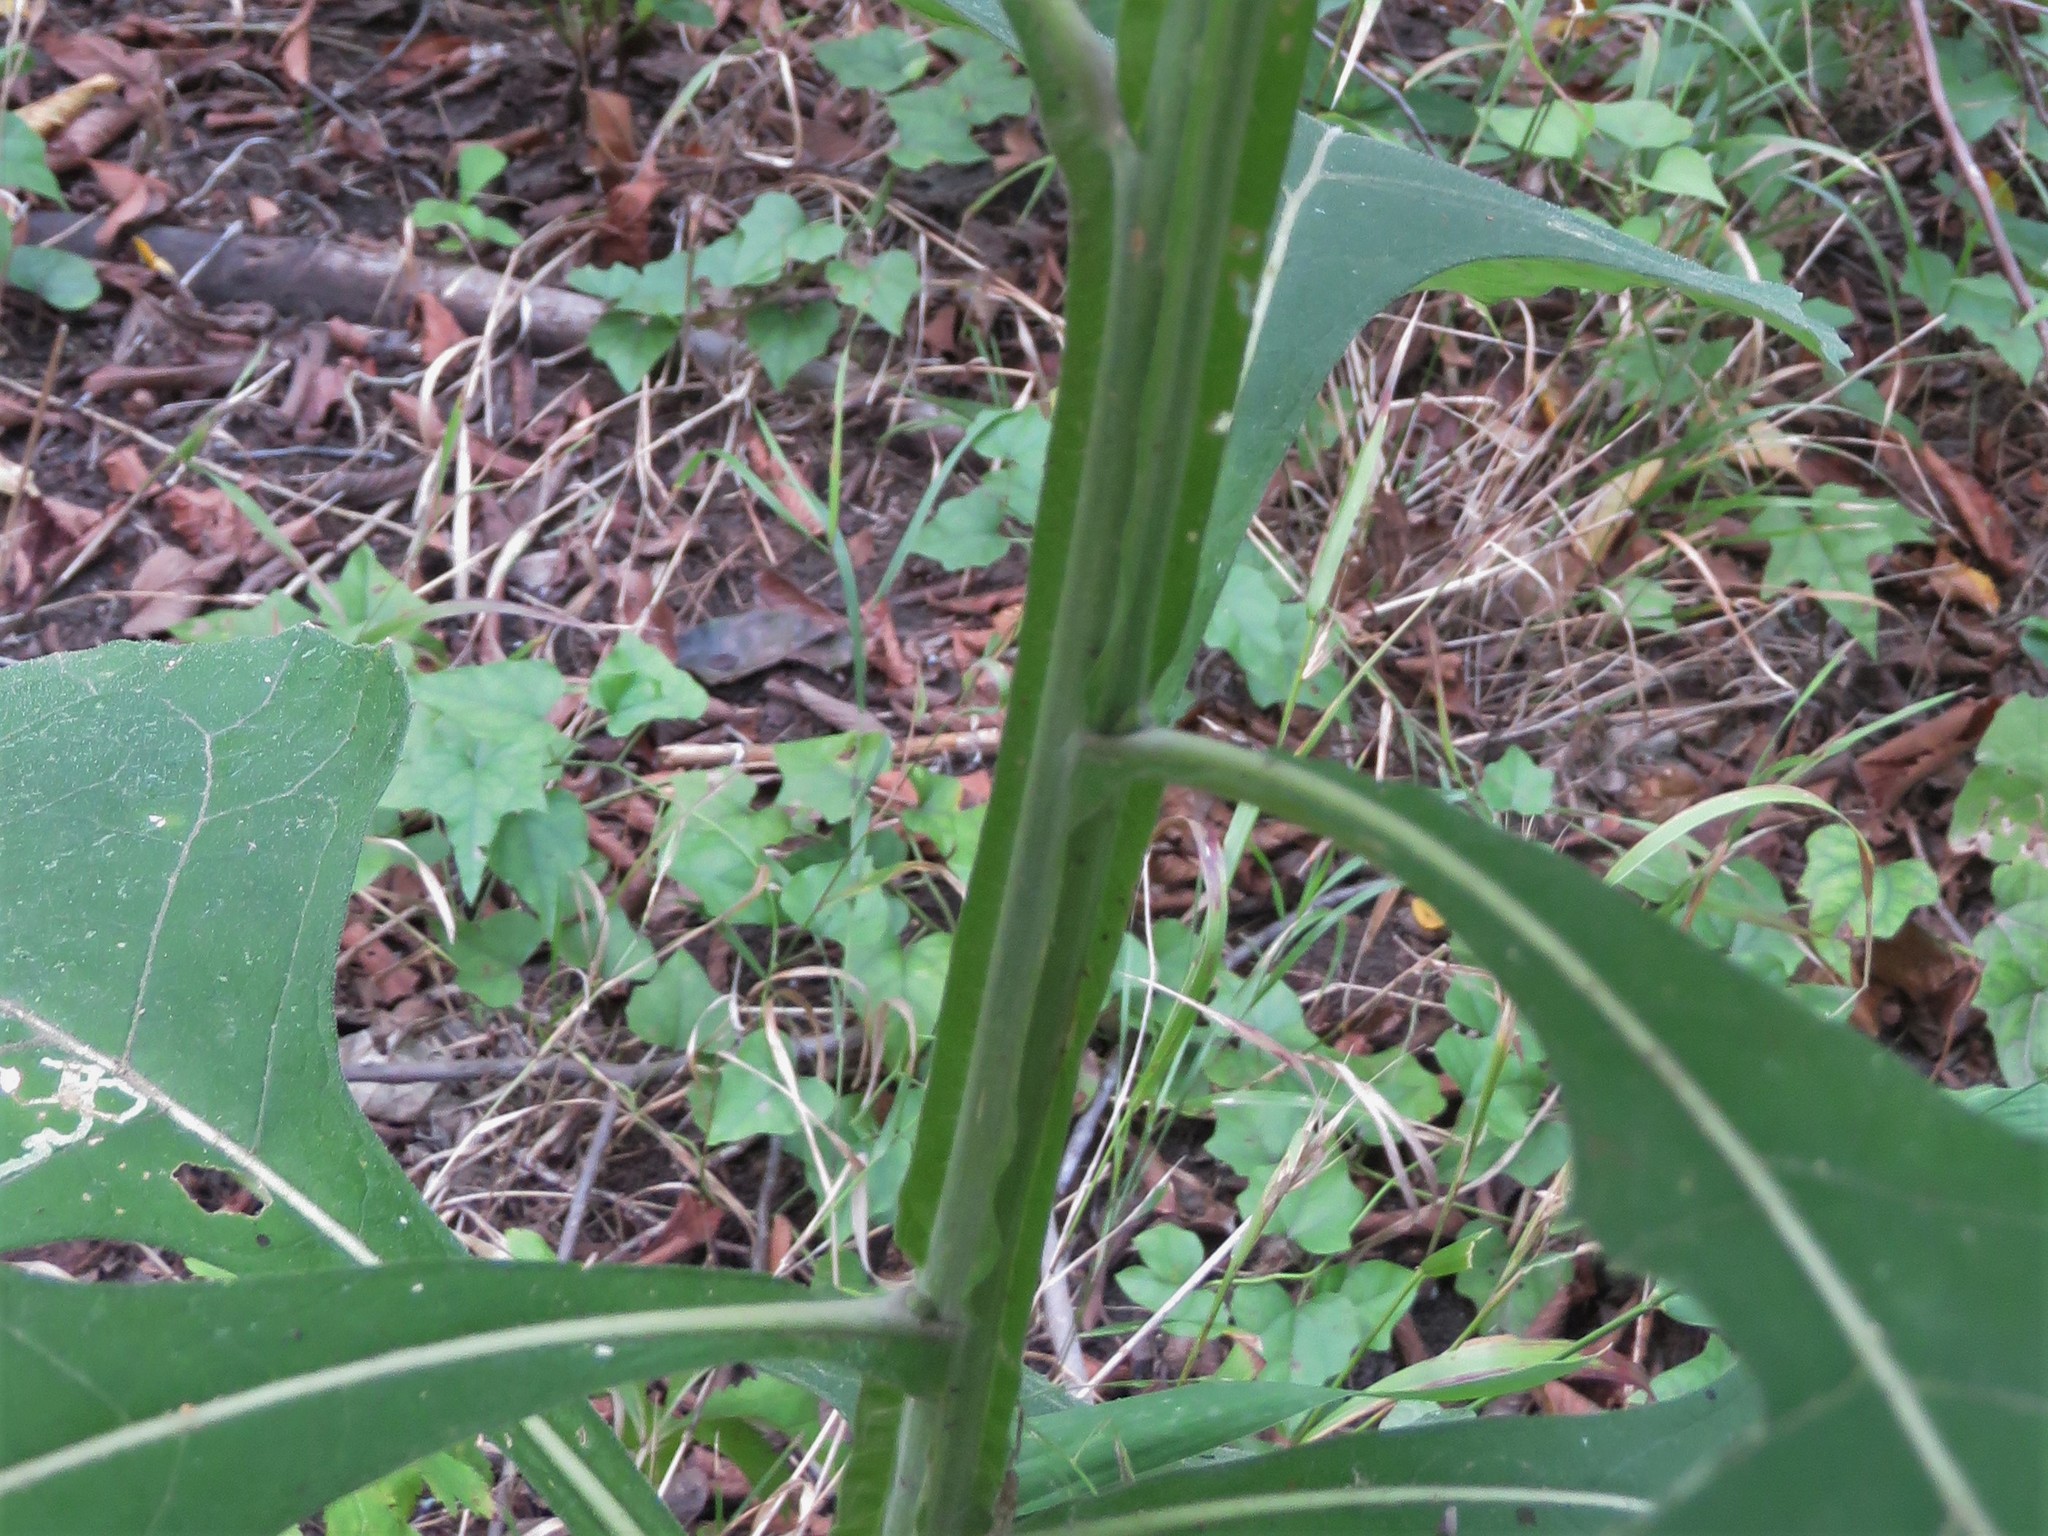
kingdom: Plantae
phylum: Tracheophyta
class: Magnoliopsida
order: Asterales
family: Asteraceae
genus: Verbesina
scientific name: Verbesina virginica
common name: Frostweed
